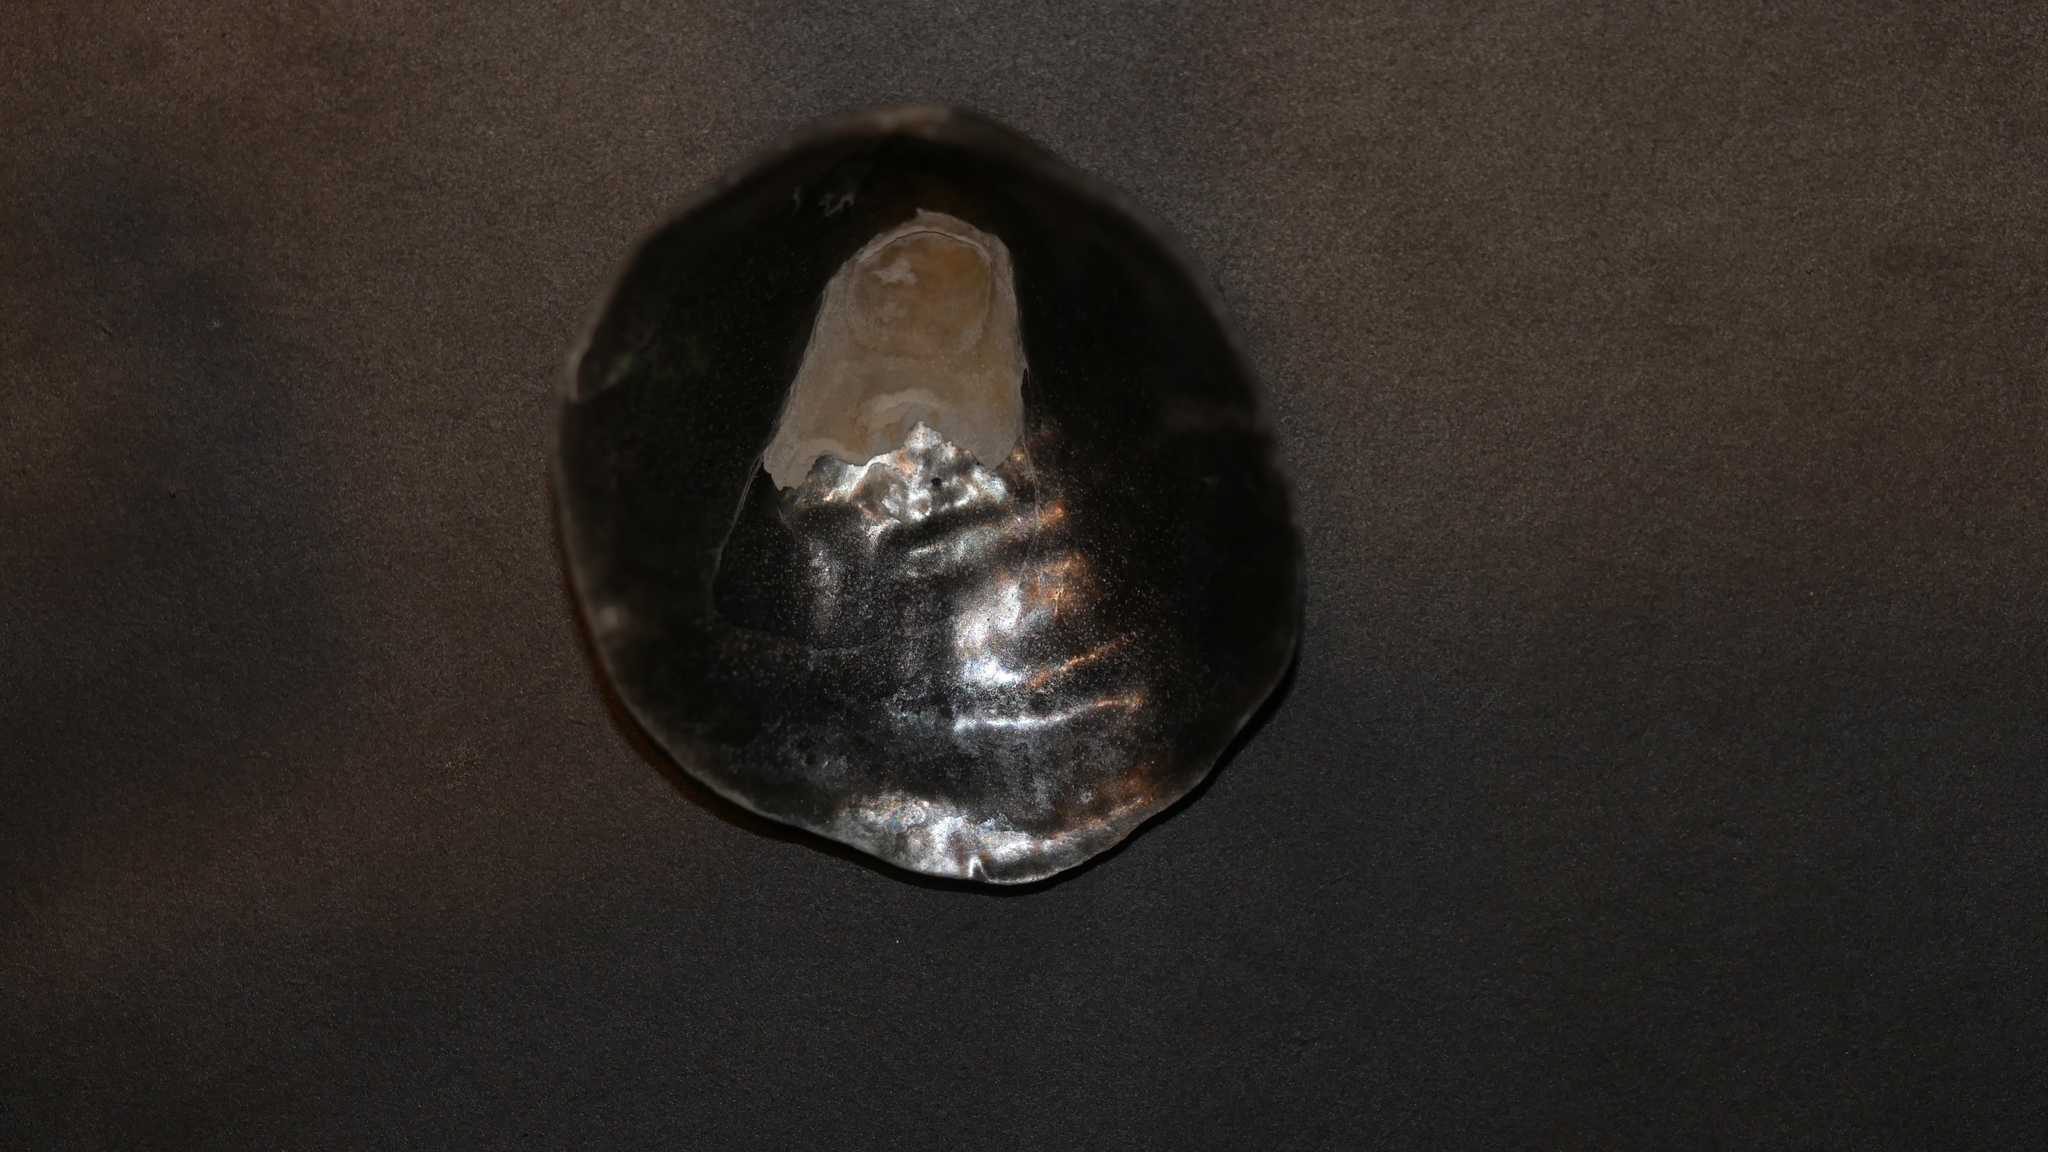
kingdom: Animalia
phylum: Mollusca
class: Bivalvia
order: Pectinida
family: Anomiidae
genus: Anomia
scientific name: Anomia simplex
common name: Common jingle shell
